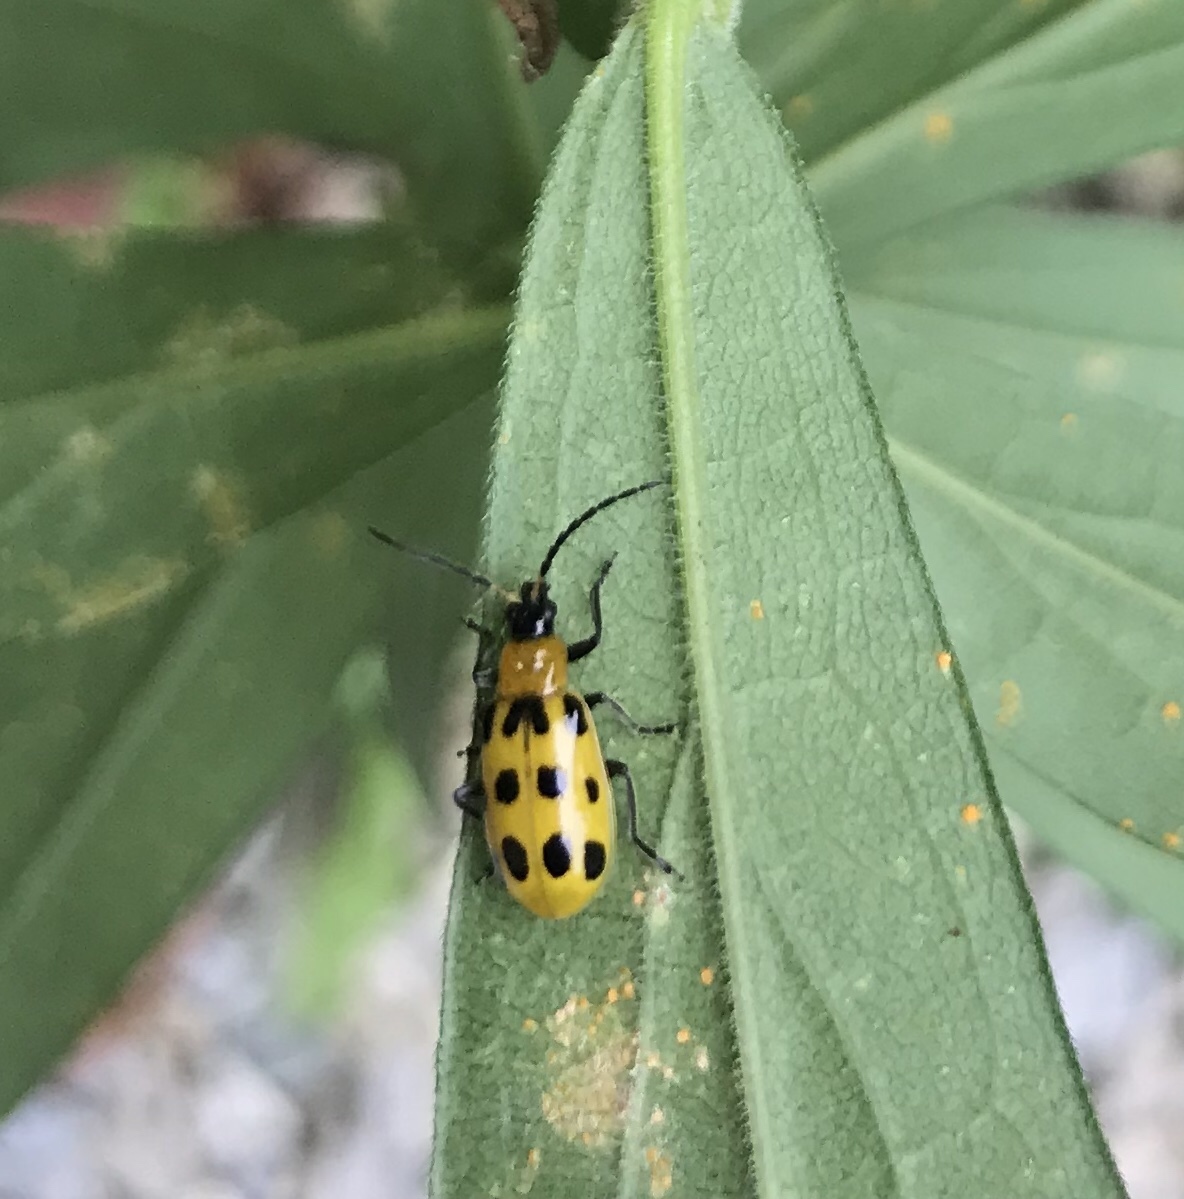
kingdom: Animalia
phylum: Arthropoda
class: Insecta
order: Coleoptera
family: Chrysomelidae
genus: Diabrotica
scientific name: Diabrotica undecimpunctata
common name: Spotted cucumber beetle
